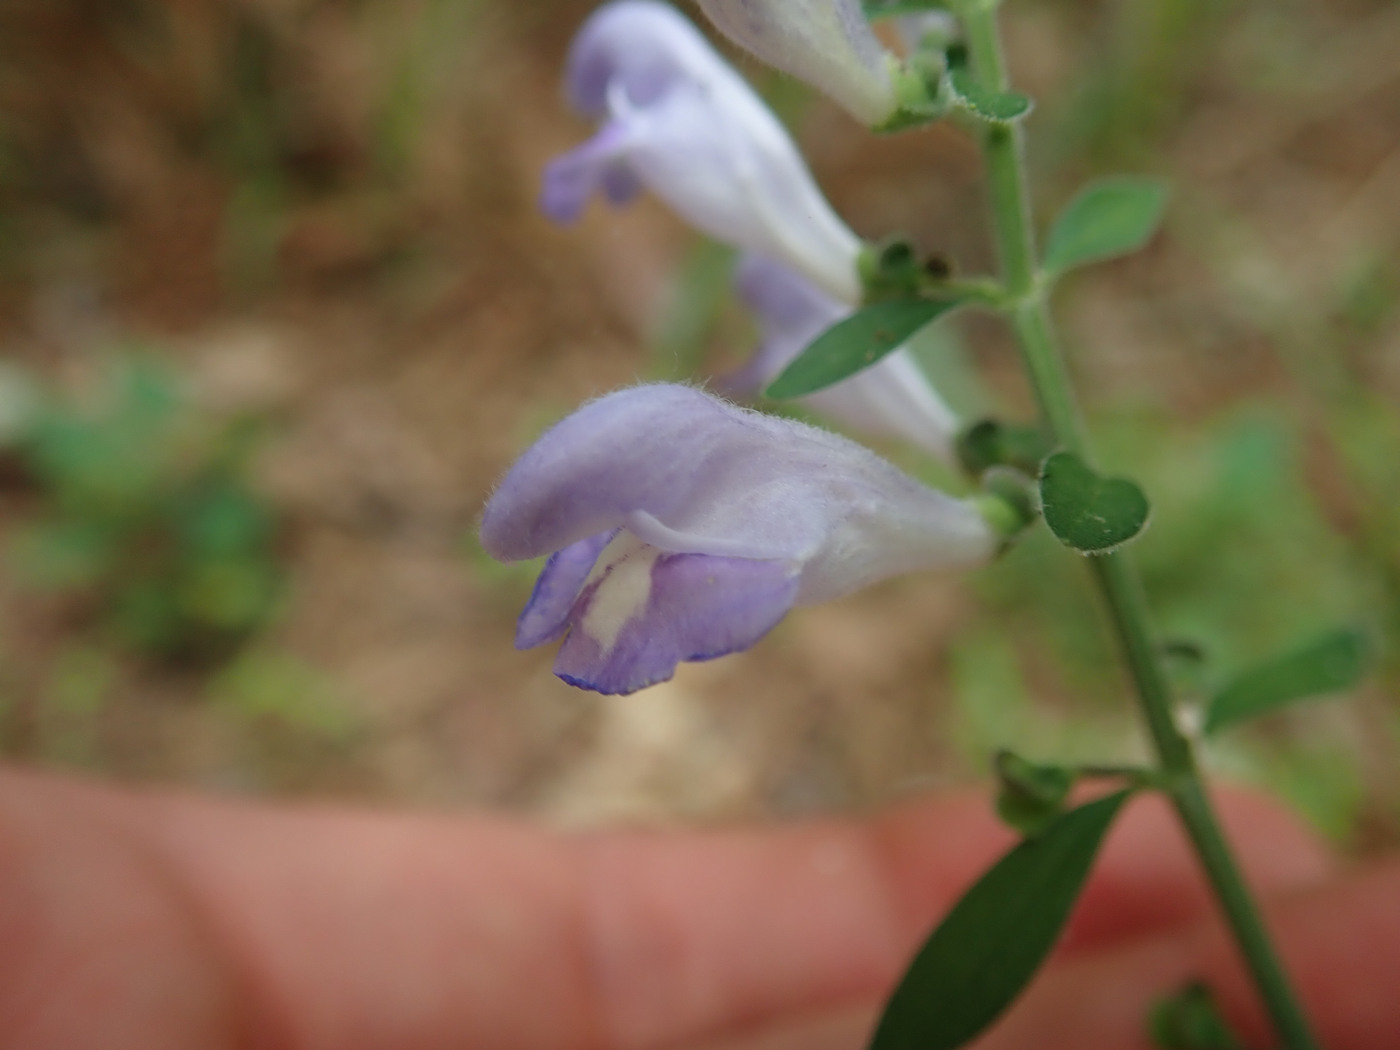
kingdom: Plantae
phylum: Tracheophyta
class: Magnoliopsida
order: Lamiales
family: Lamiaceae
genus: Scutellaria
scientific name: Scutellaria integrifolia
